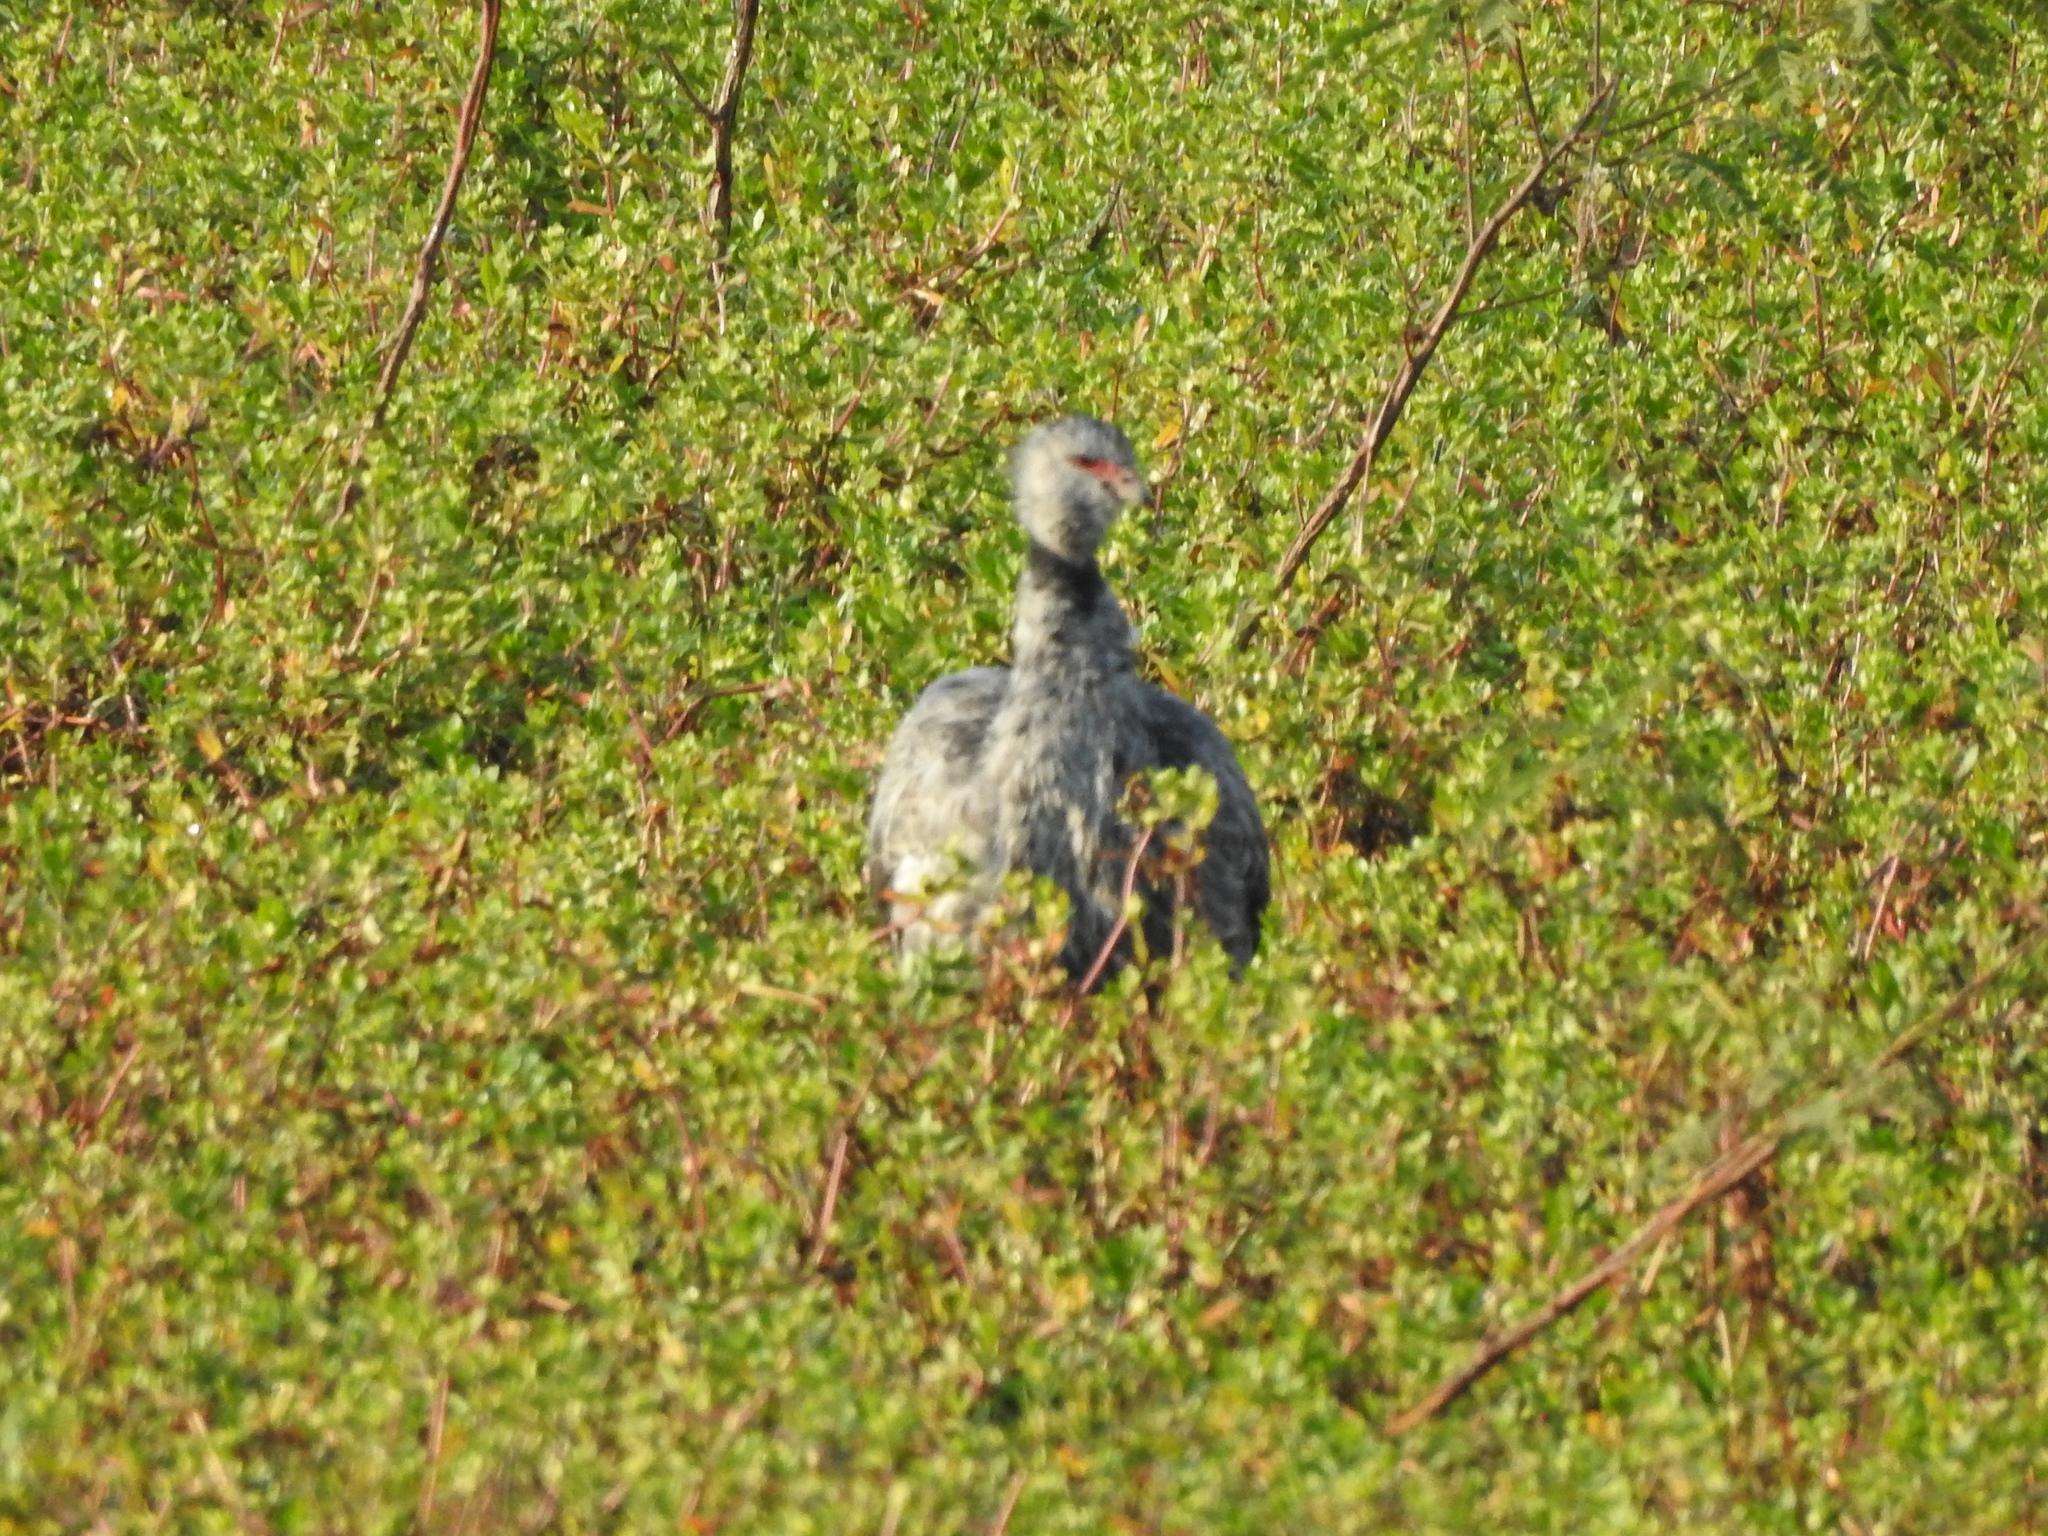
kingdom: Animalia
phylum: Chordata
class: Aves
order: Anseriformes
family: Anhimidae
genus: Chauna
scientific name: Chauna torquata
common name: Southern screamer
